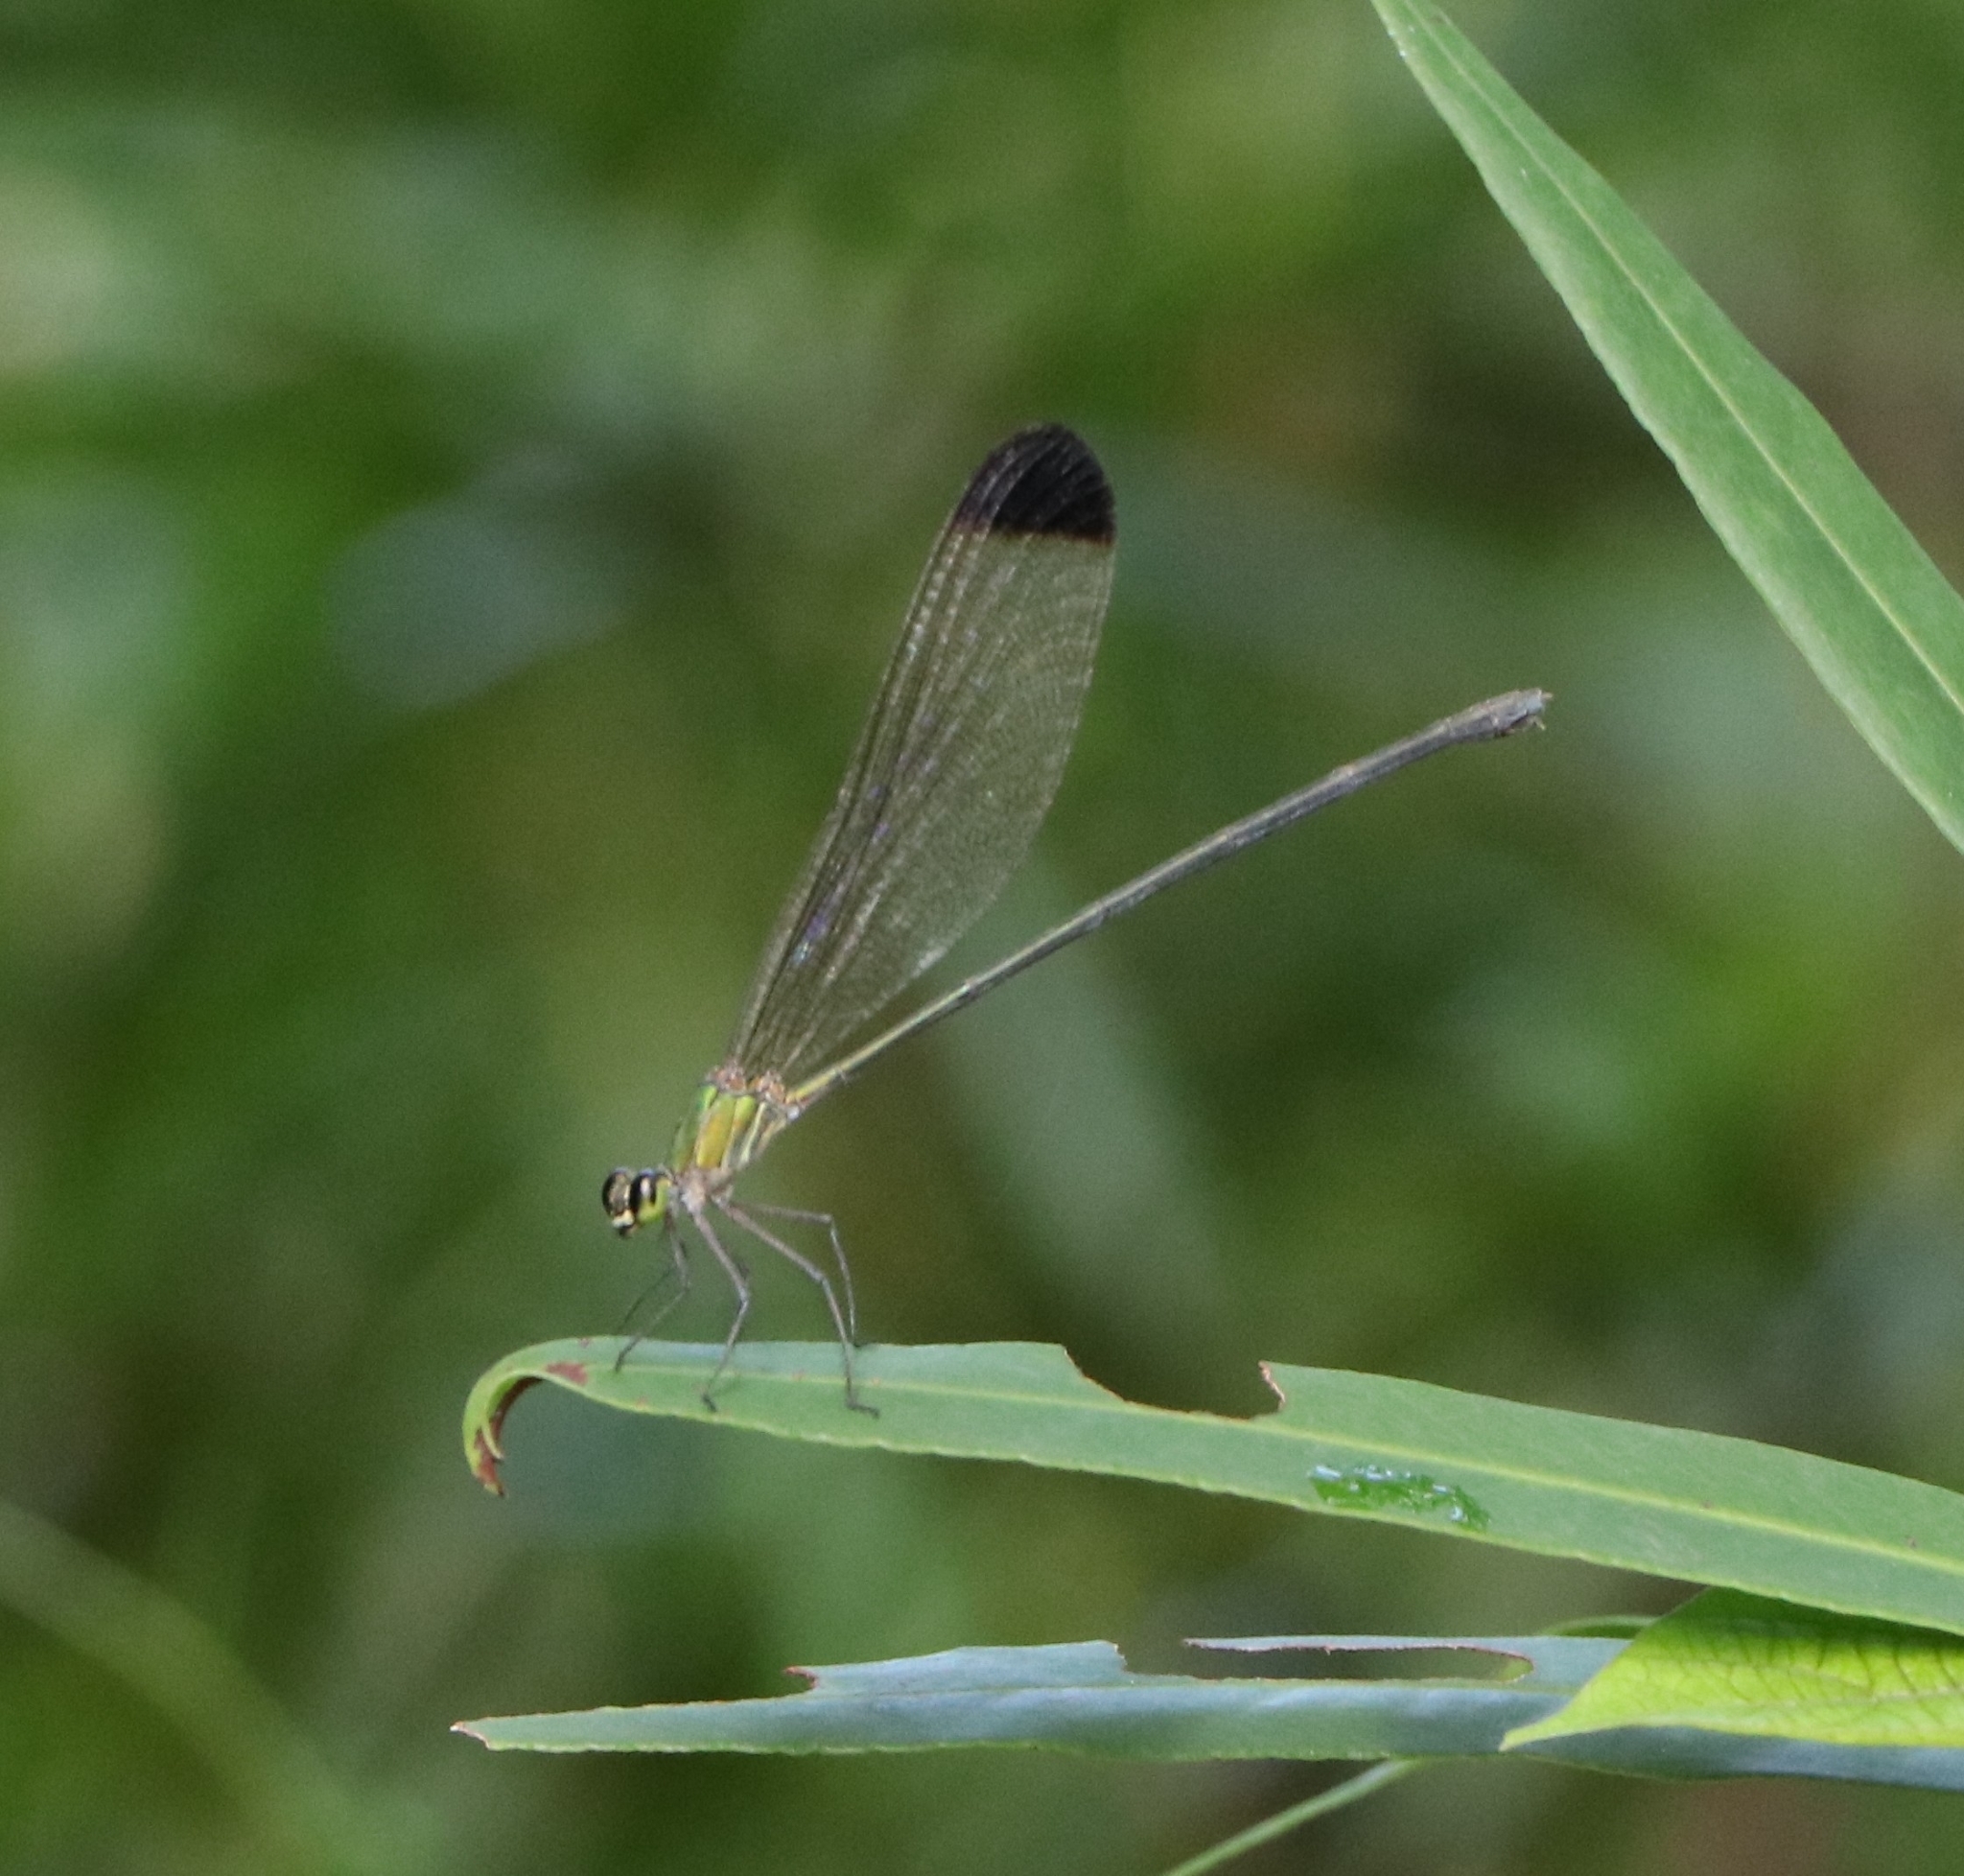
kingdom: Animalia
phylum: Arthropoda
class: Insecta
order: Odonata
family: Calopterygidae
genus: Vestalis
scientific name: Vestalis apicalis
